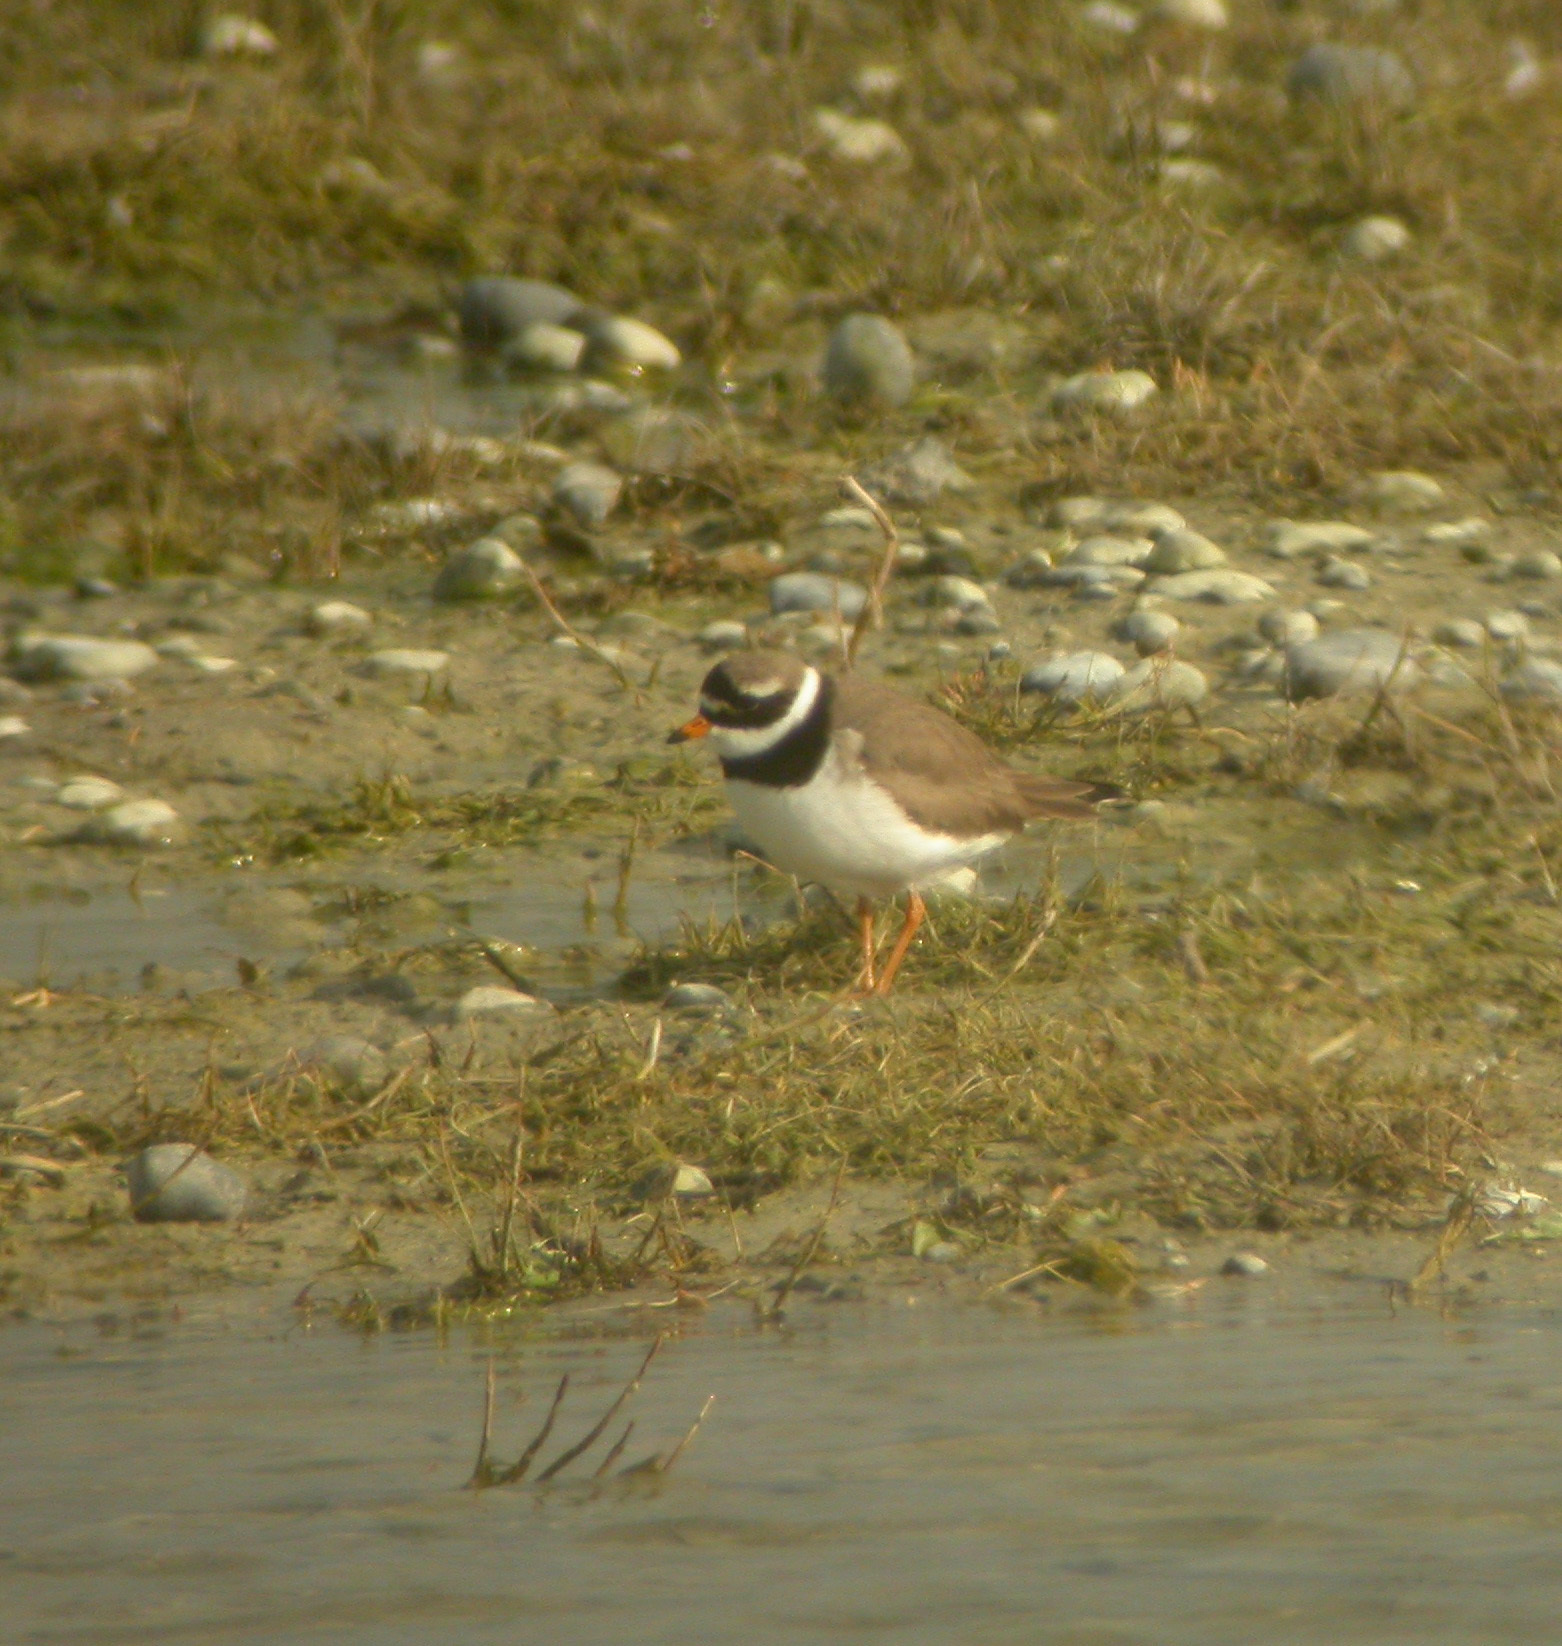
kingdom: Animalia
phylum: Chordata
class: Aves
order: Charadriiformes
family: Charadriidae
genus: Charadrius
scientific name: Charadrius hiaticula
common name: Common ringed plover
